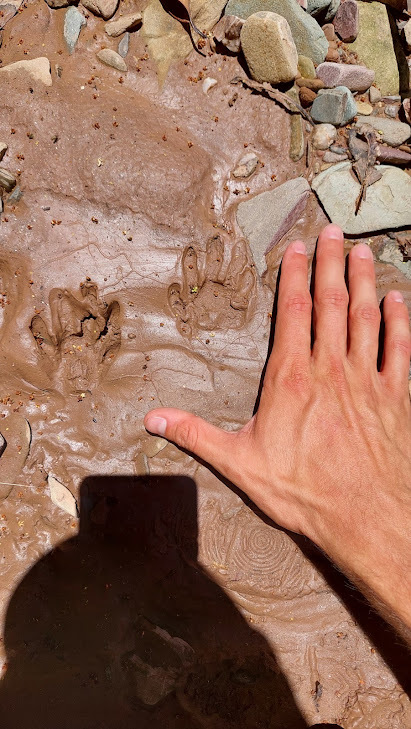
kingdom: Animalia
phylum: Chordata
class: Mammalia
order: Carnivora
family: Procyonidae
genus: Procyon
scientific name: Procyon cancrivorus
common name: Crab-eating raccoon
